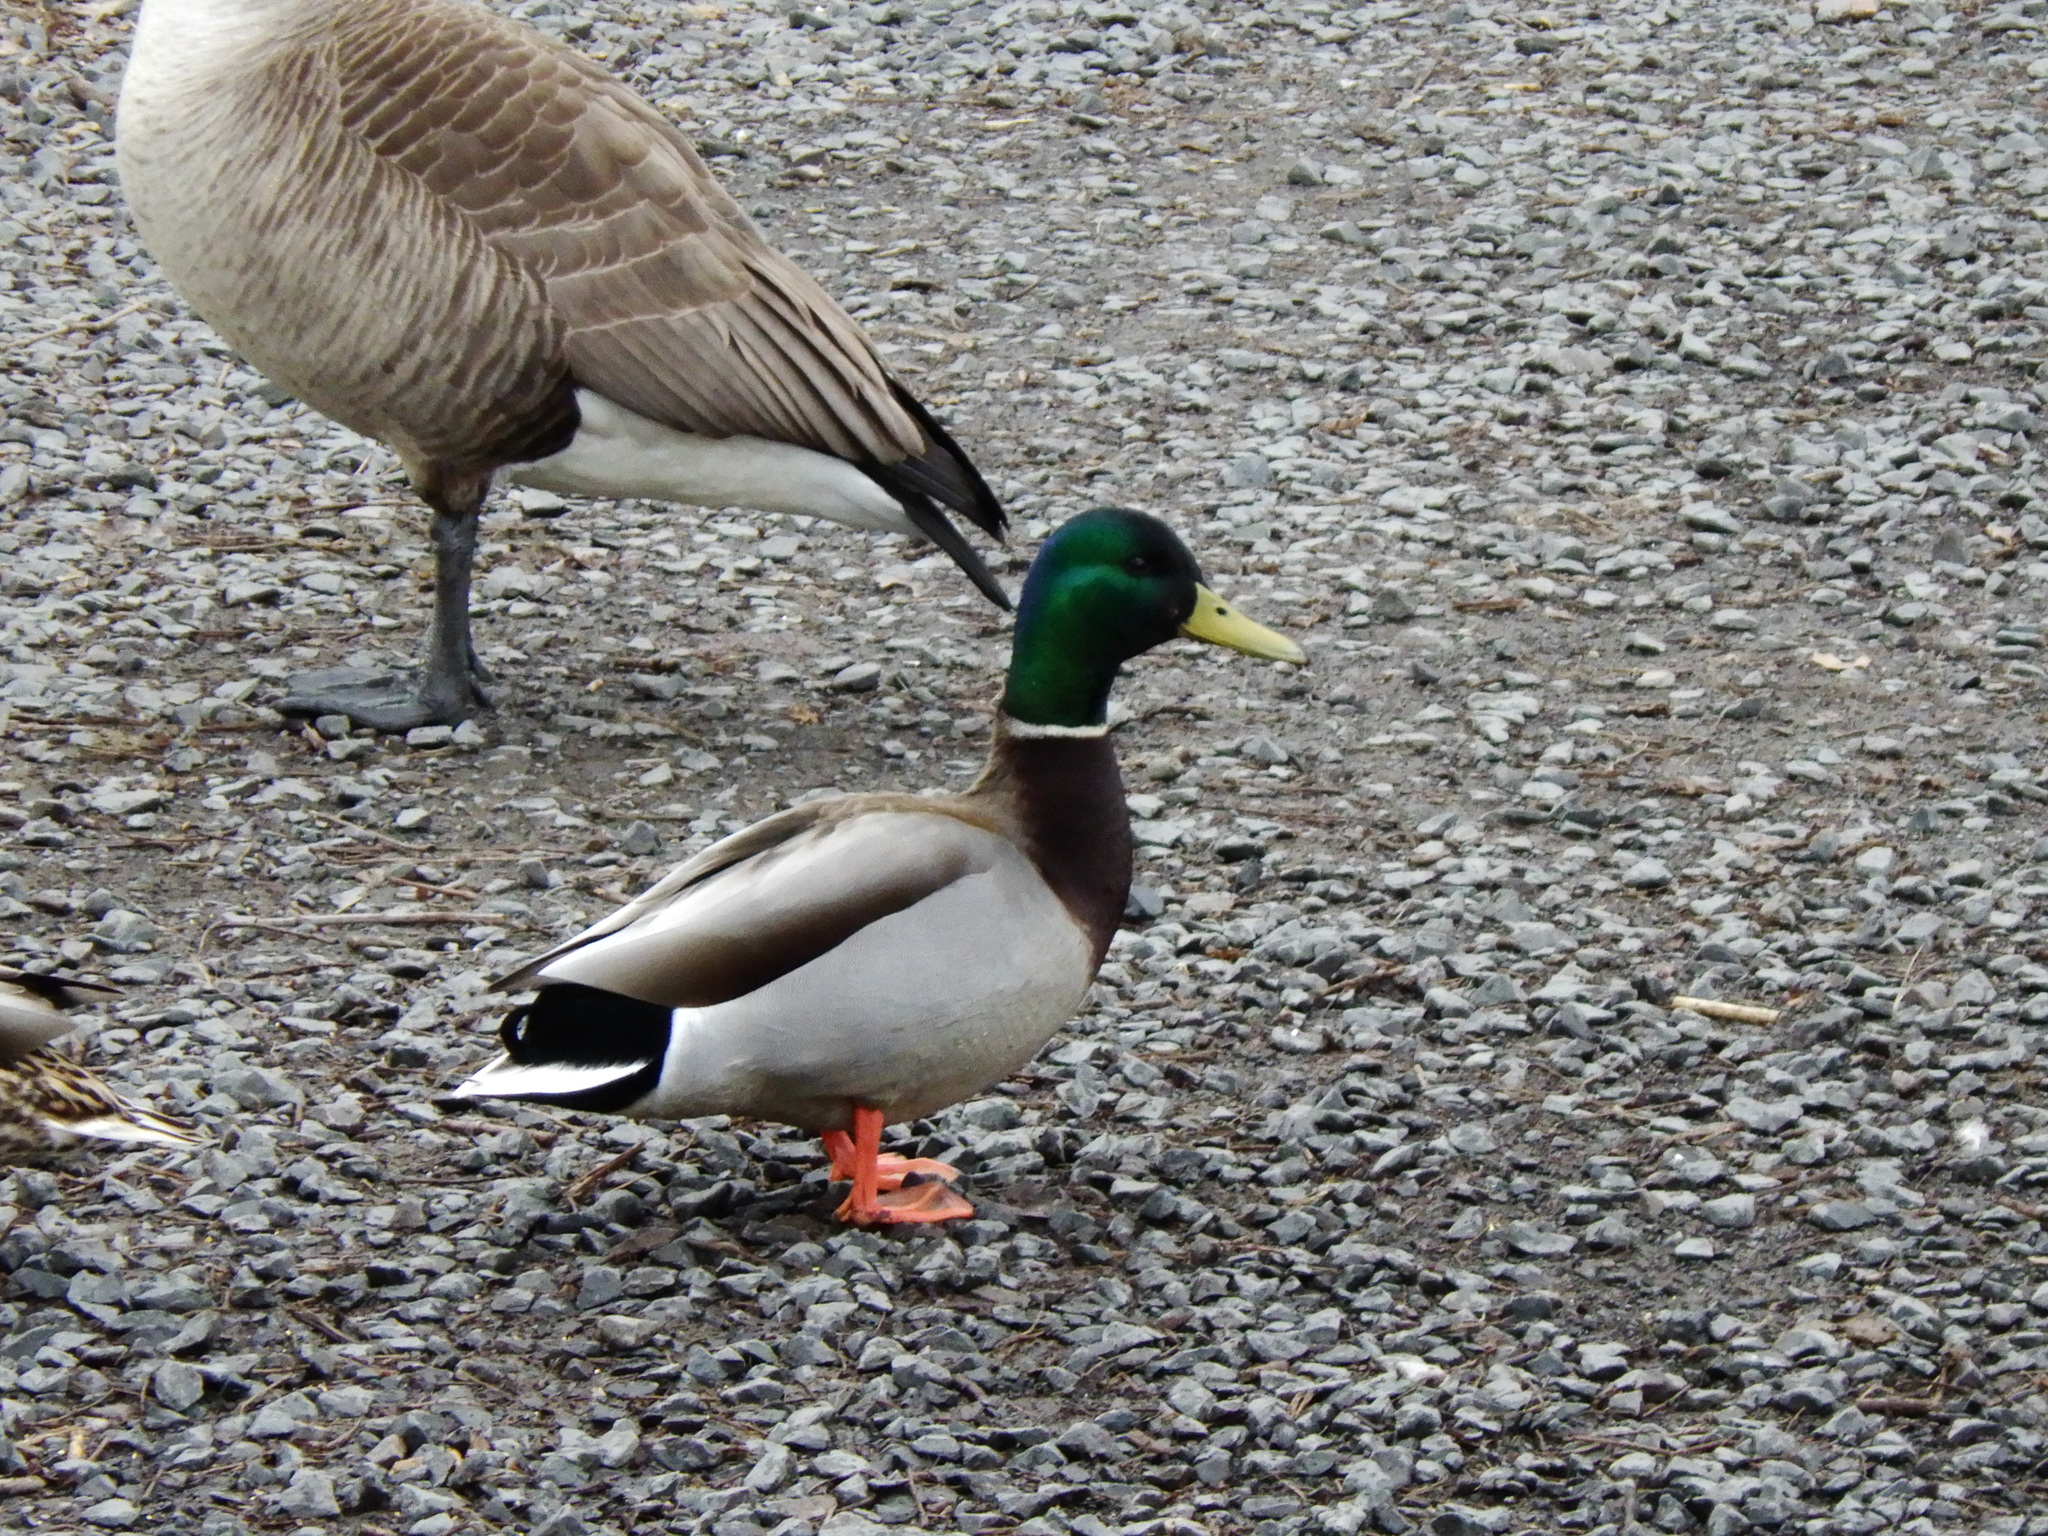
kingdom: Animalia
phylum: Chordata
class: Aves
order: Anseriformes
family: Anatidae
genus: Anas
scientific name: Anas platyrhynchos
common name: Mallard
